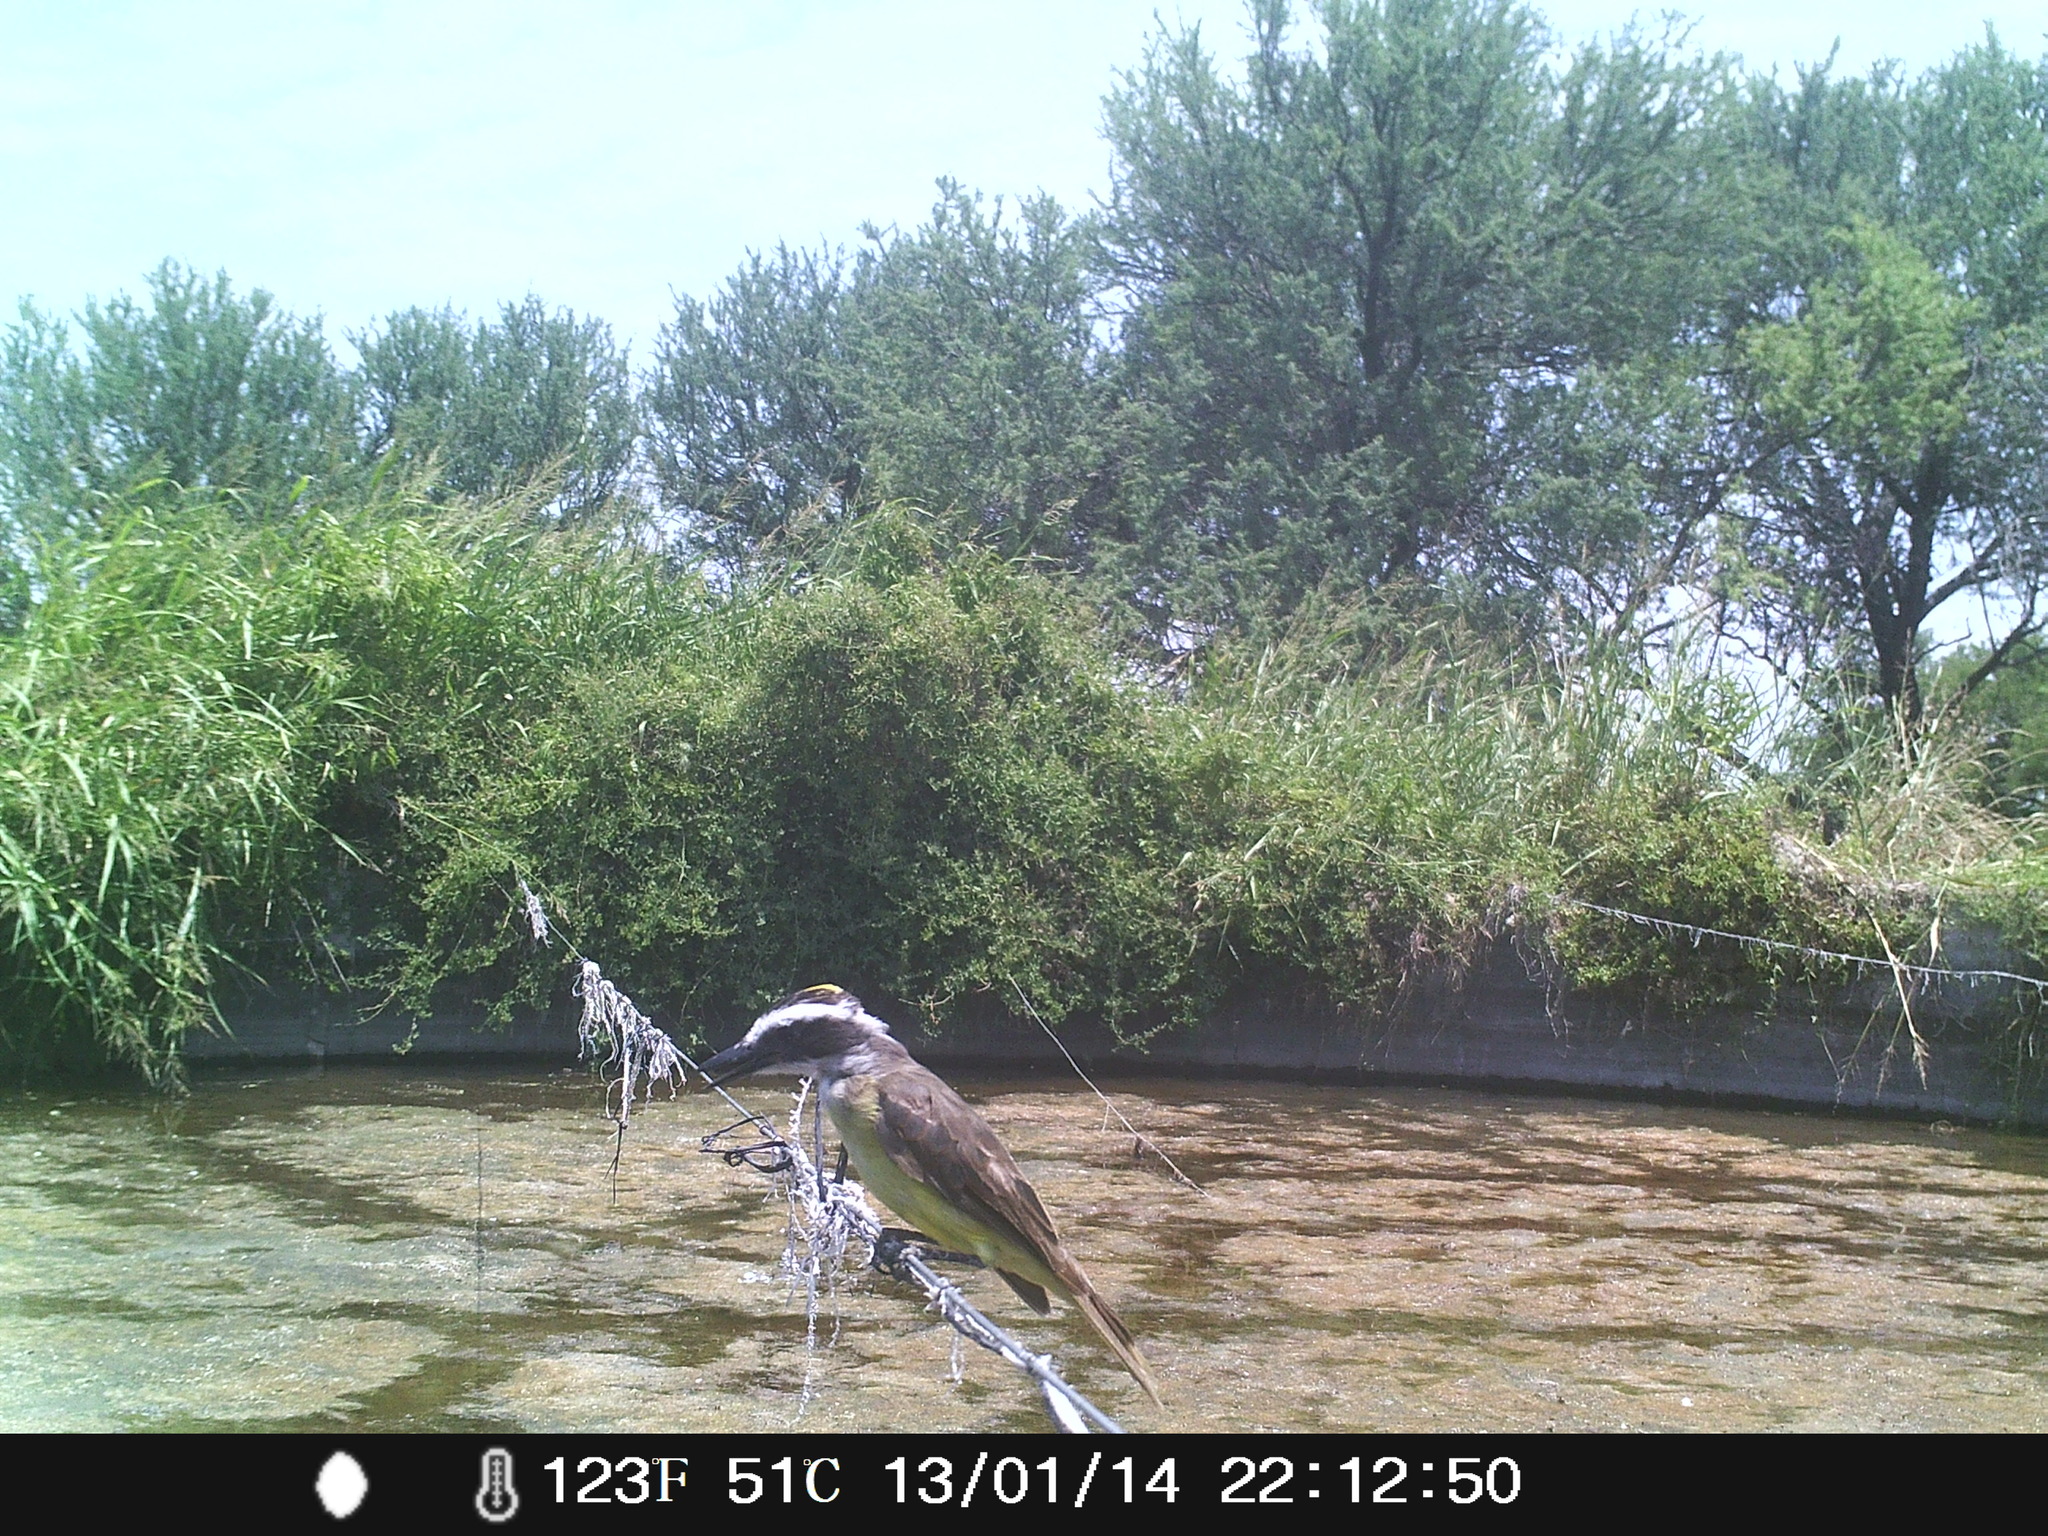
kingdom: Animalia
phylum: Chordata
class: Aves
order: Passeriformes
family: Tyrannidae
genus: Pitangus
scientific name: Pitangus sulphuratus
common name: Great kiskadee
